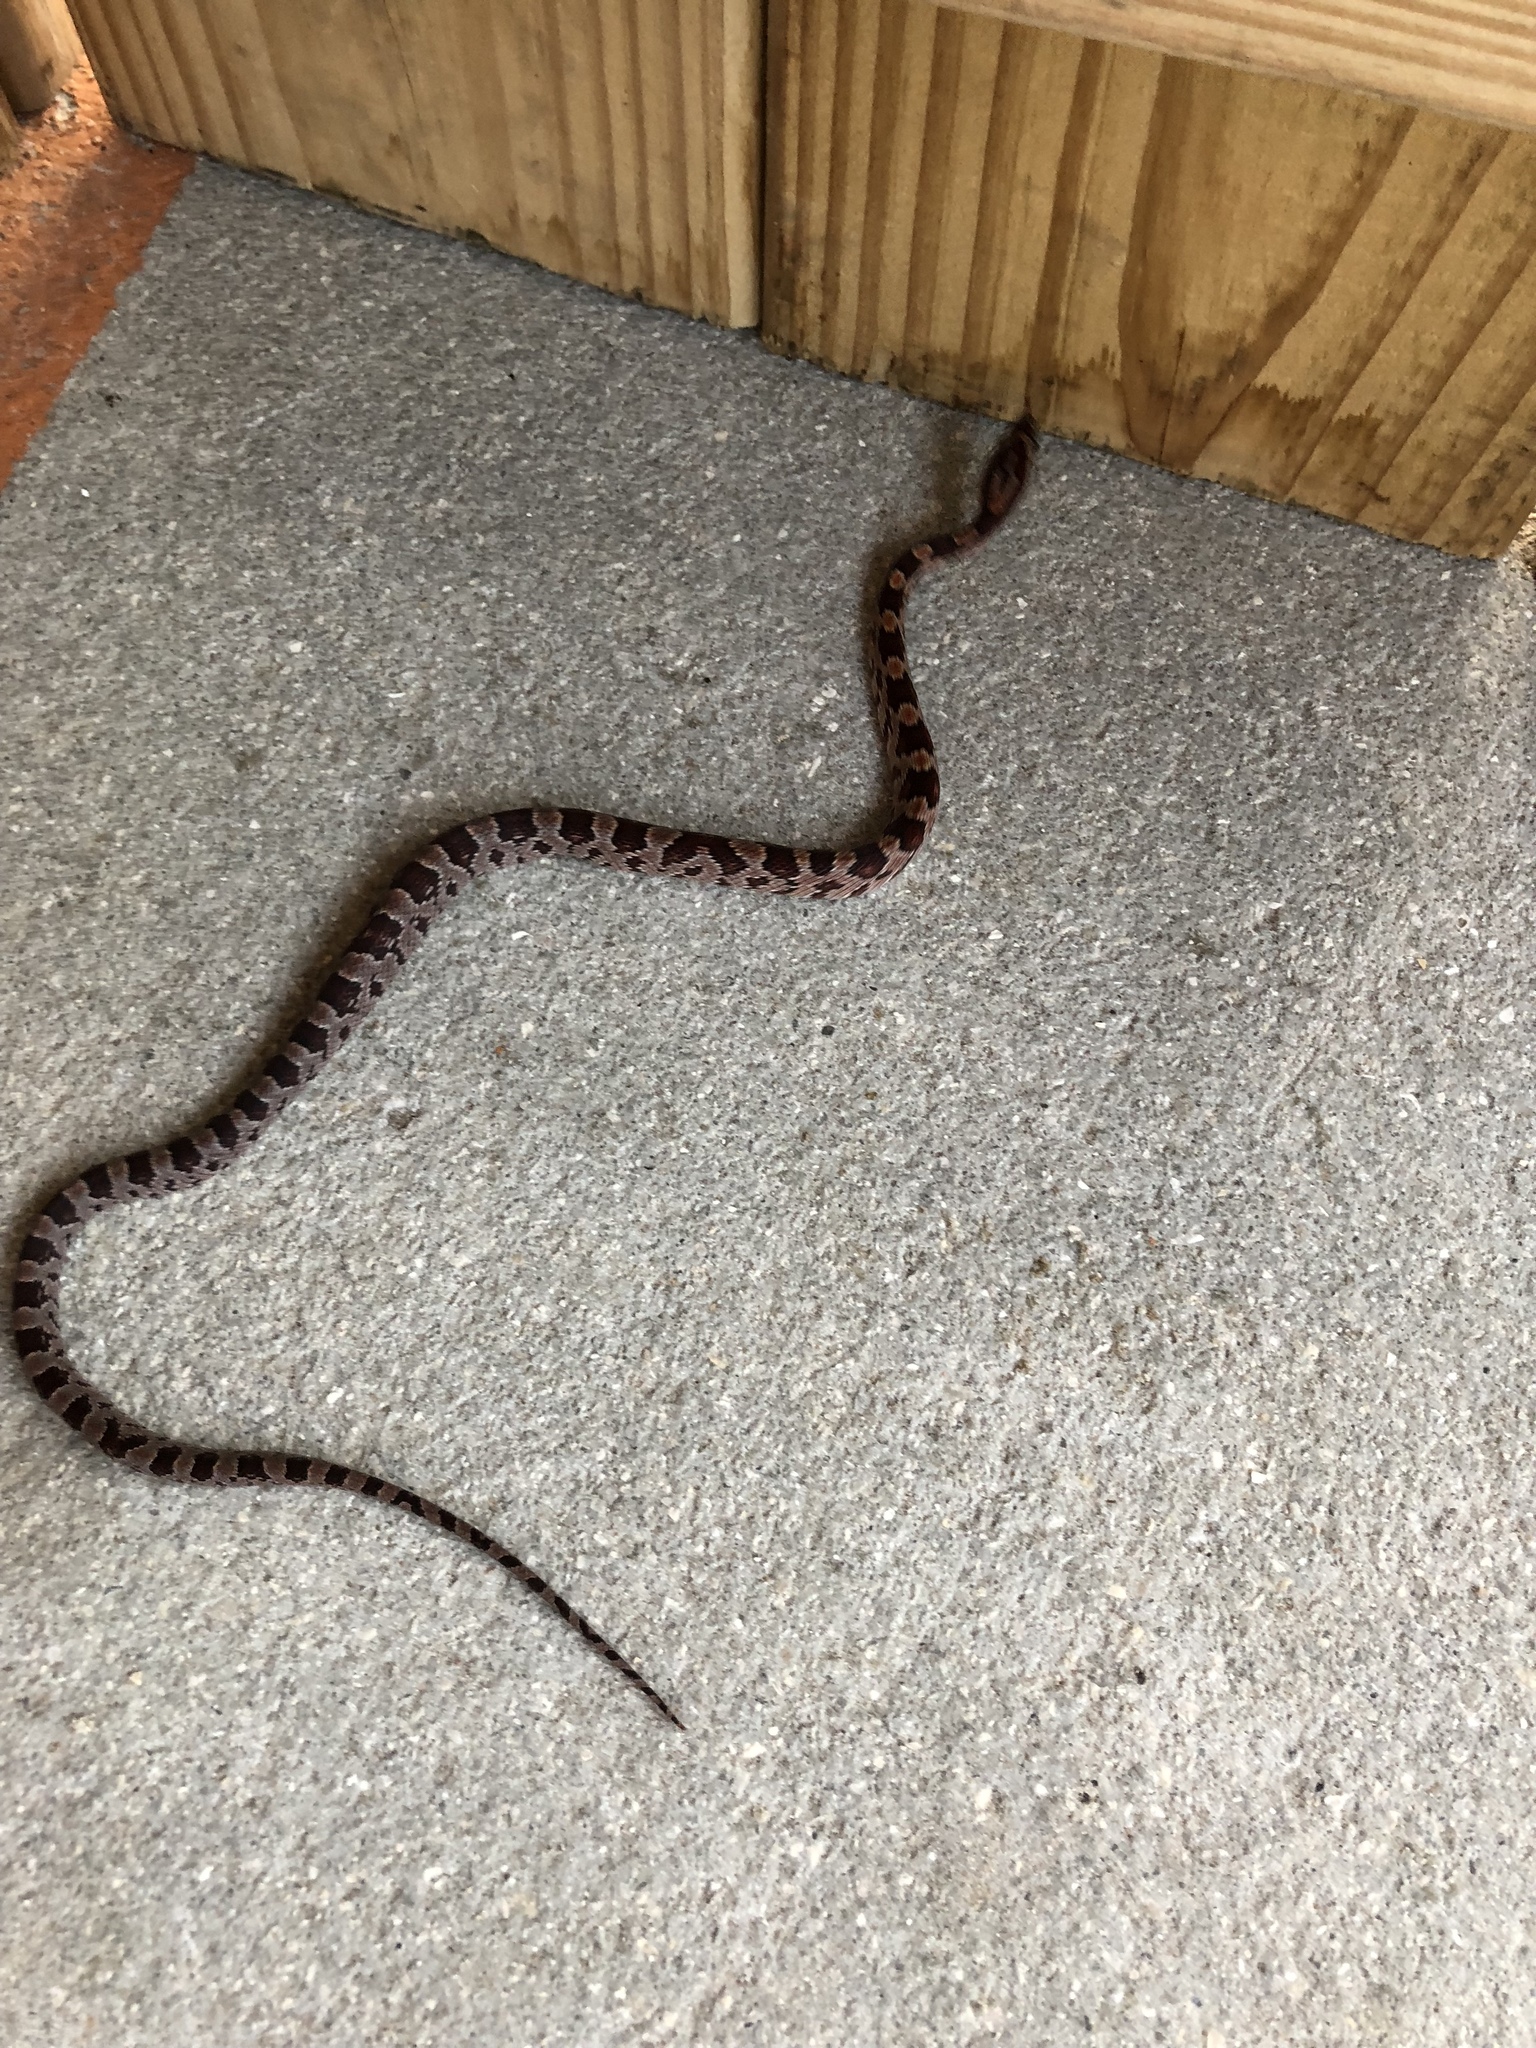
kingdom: Animalia
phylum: Chordata
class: Squamata
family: Colubridae
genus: Pantherophis
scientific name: Pantherophis guttatus
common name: Red cornsnake
